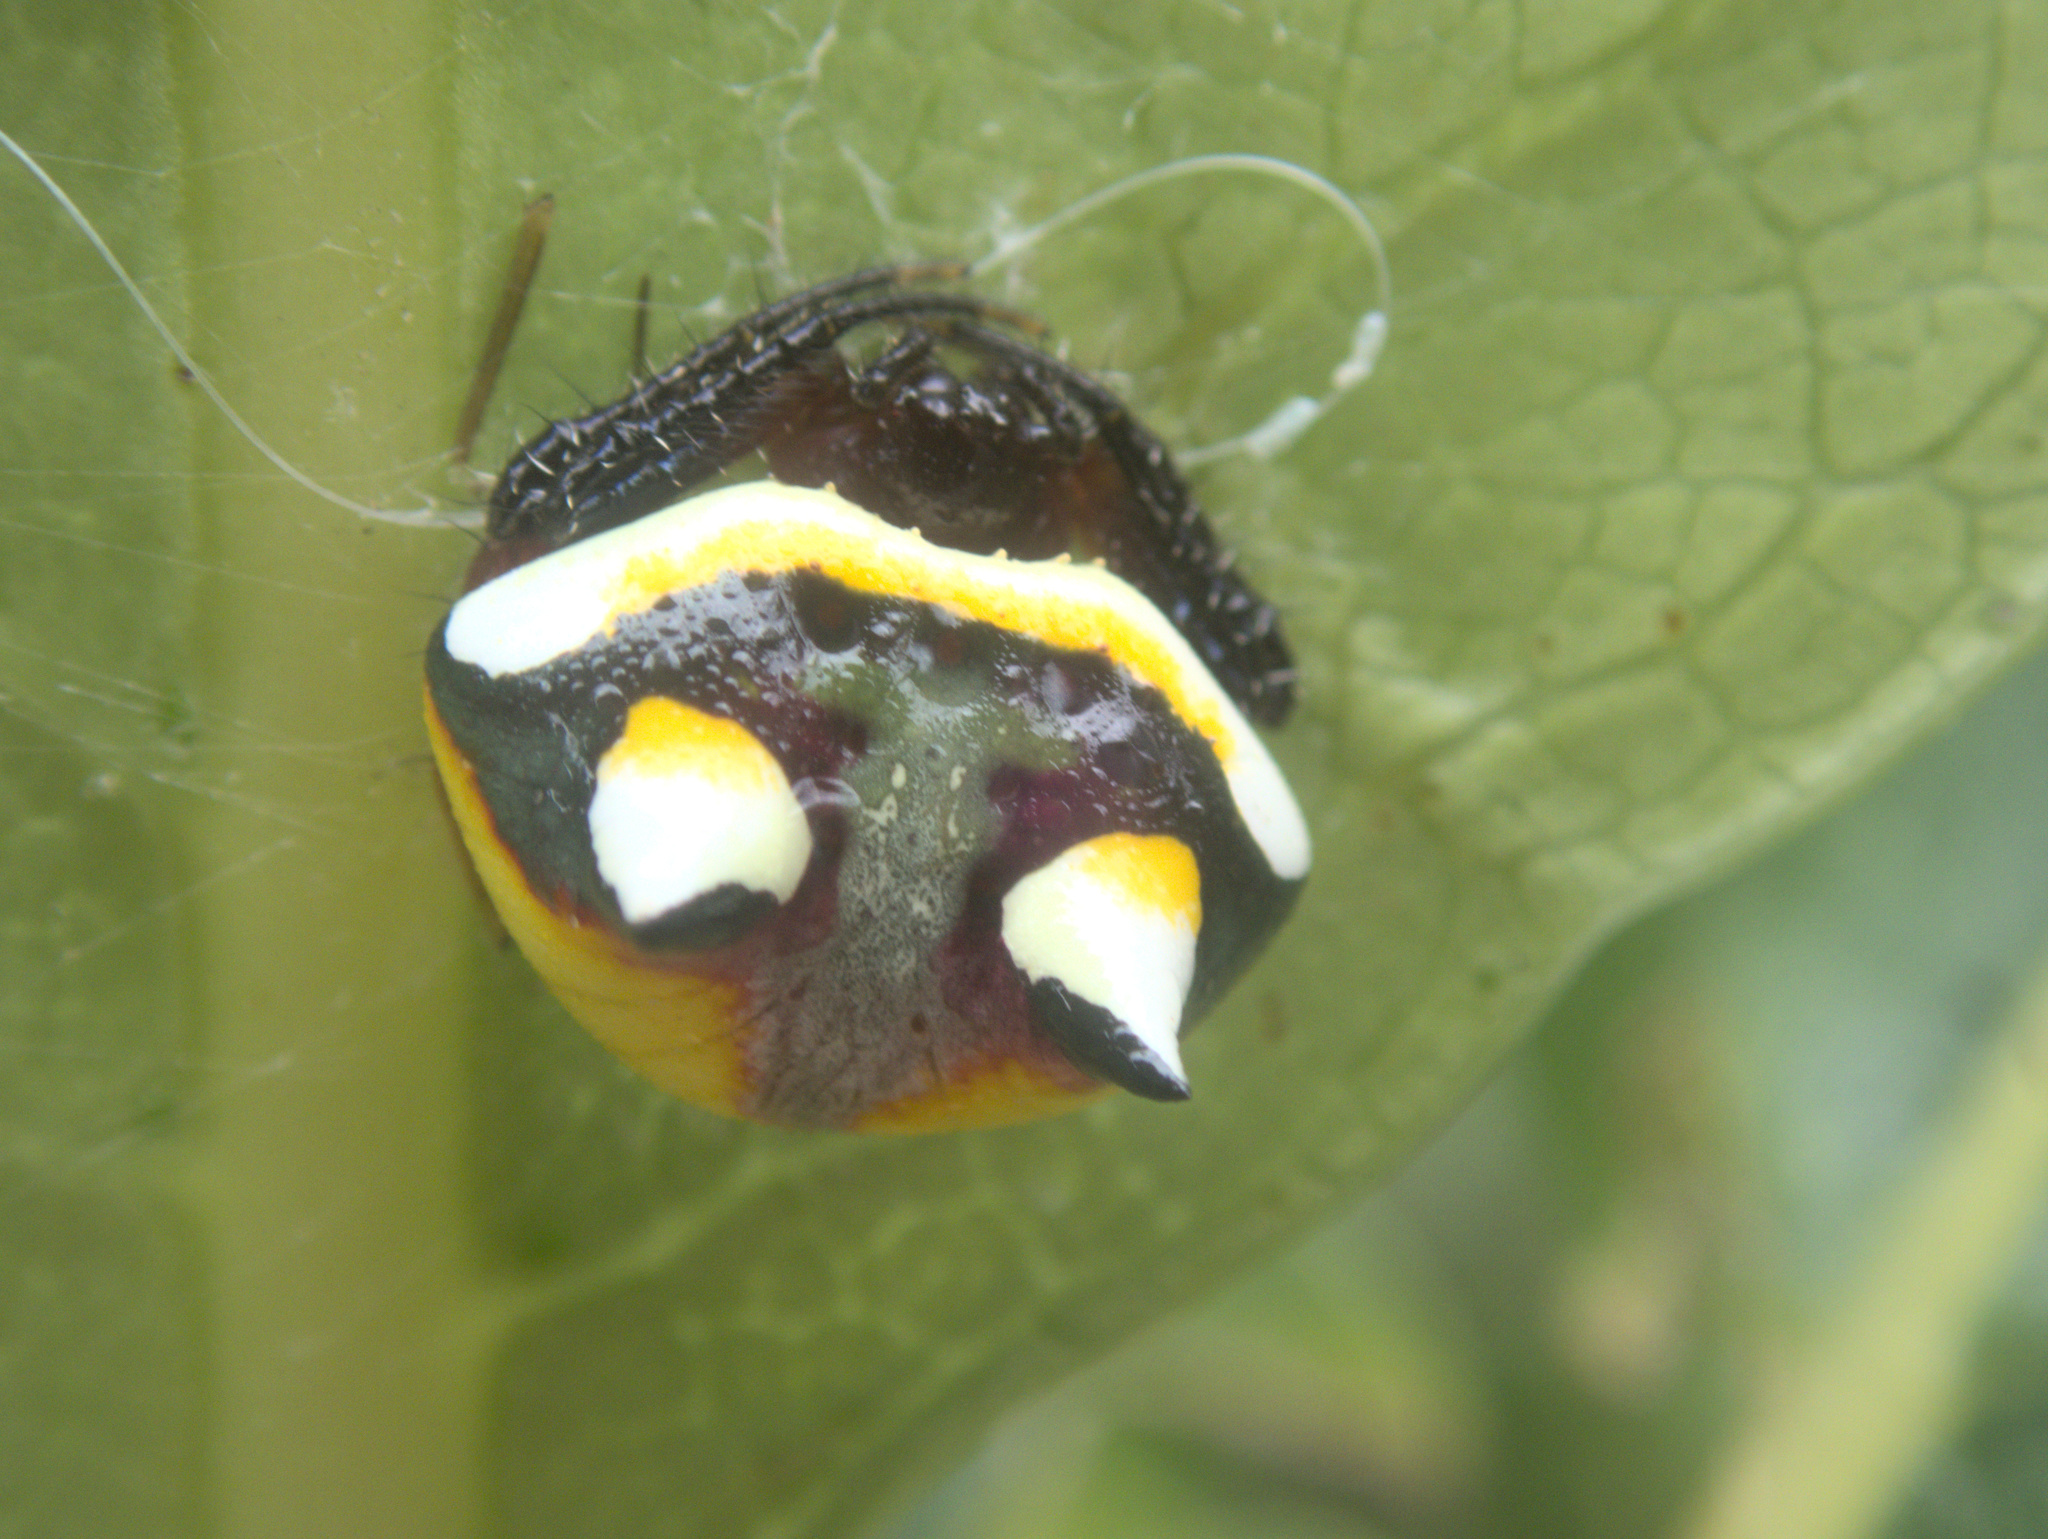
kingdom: Animalia
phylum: Arthropoda
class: Arachnida
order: Araneae
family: Araneidae
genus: Poecilopachys
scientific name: Poecilopachys australasia
